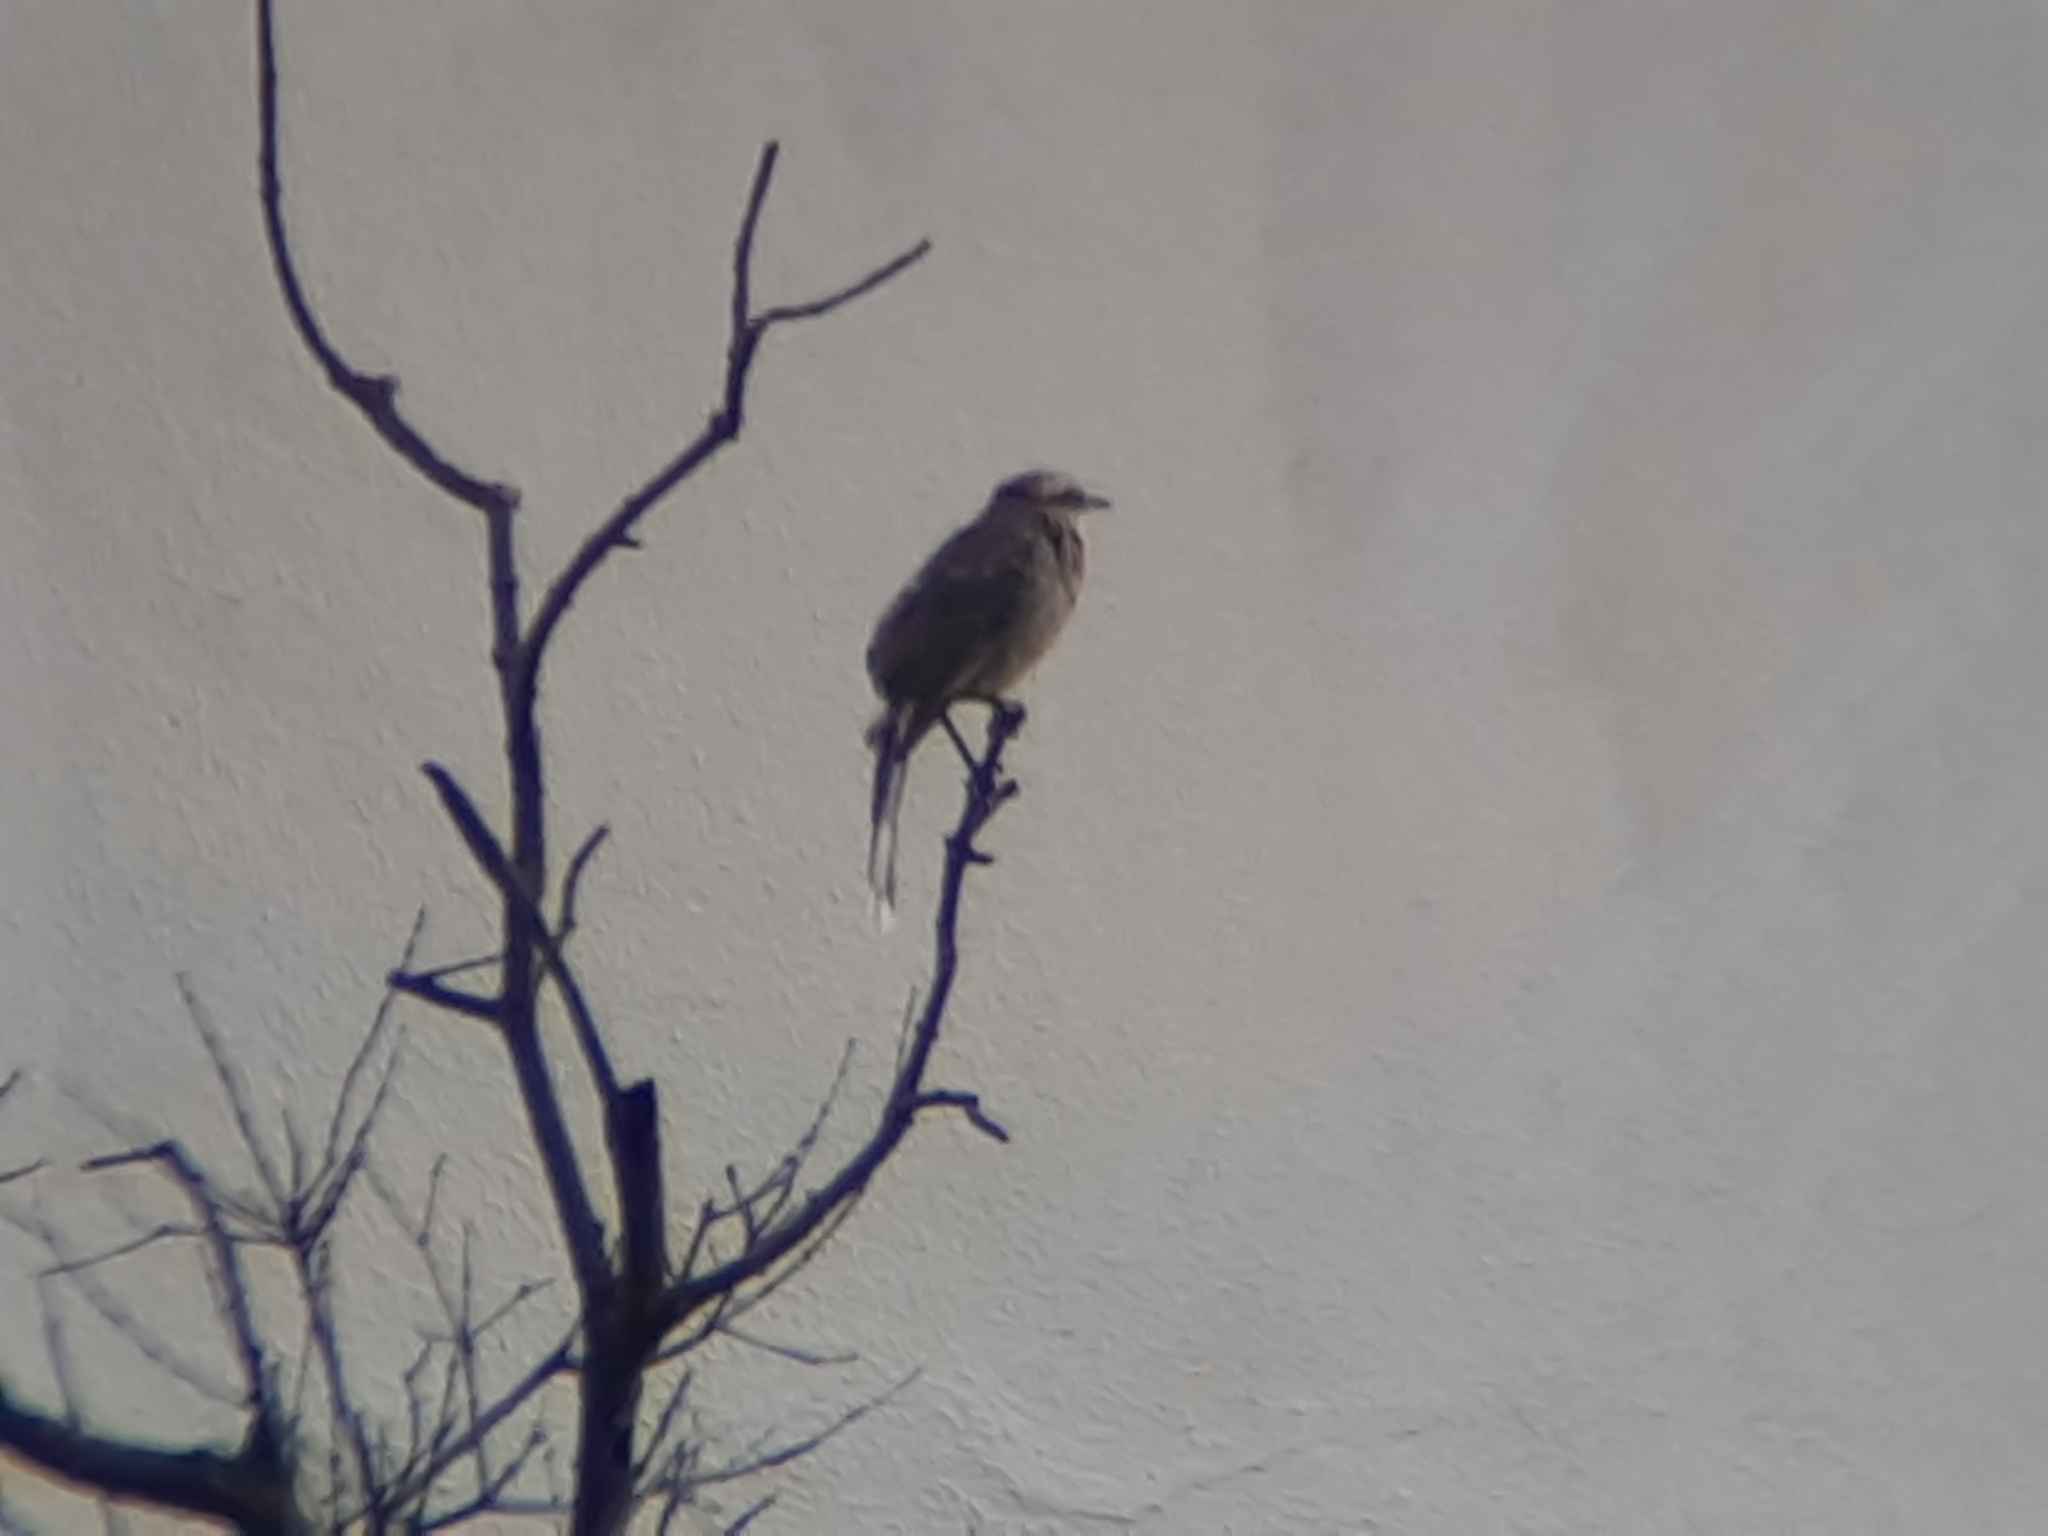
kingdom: Animalia
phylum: Chordata
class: Aves
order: Passeriformes
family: Mimidae
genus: Mimus
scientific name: Mimus saturninus
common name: Chalk-browed mockingbird
